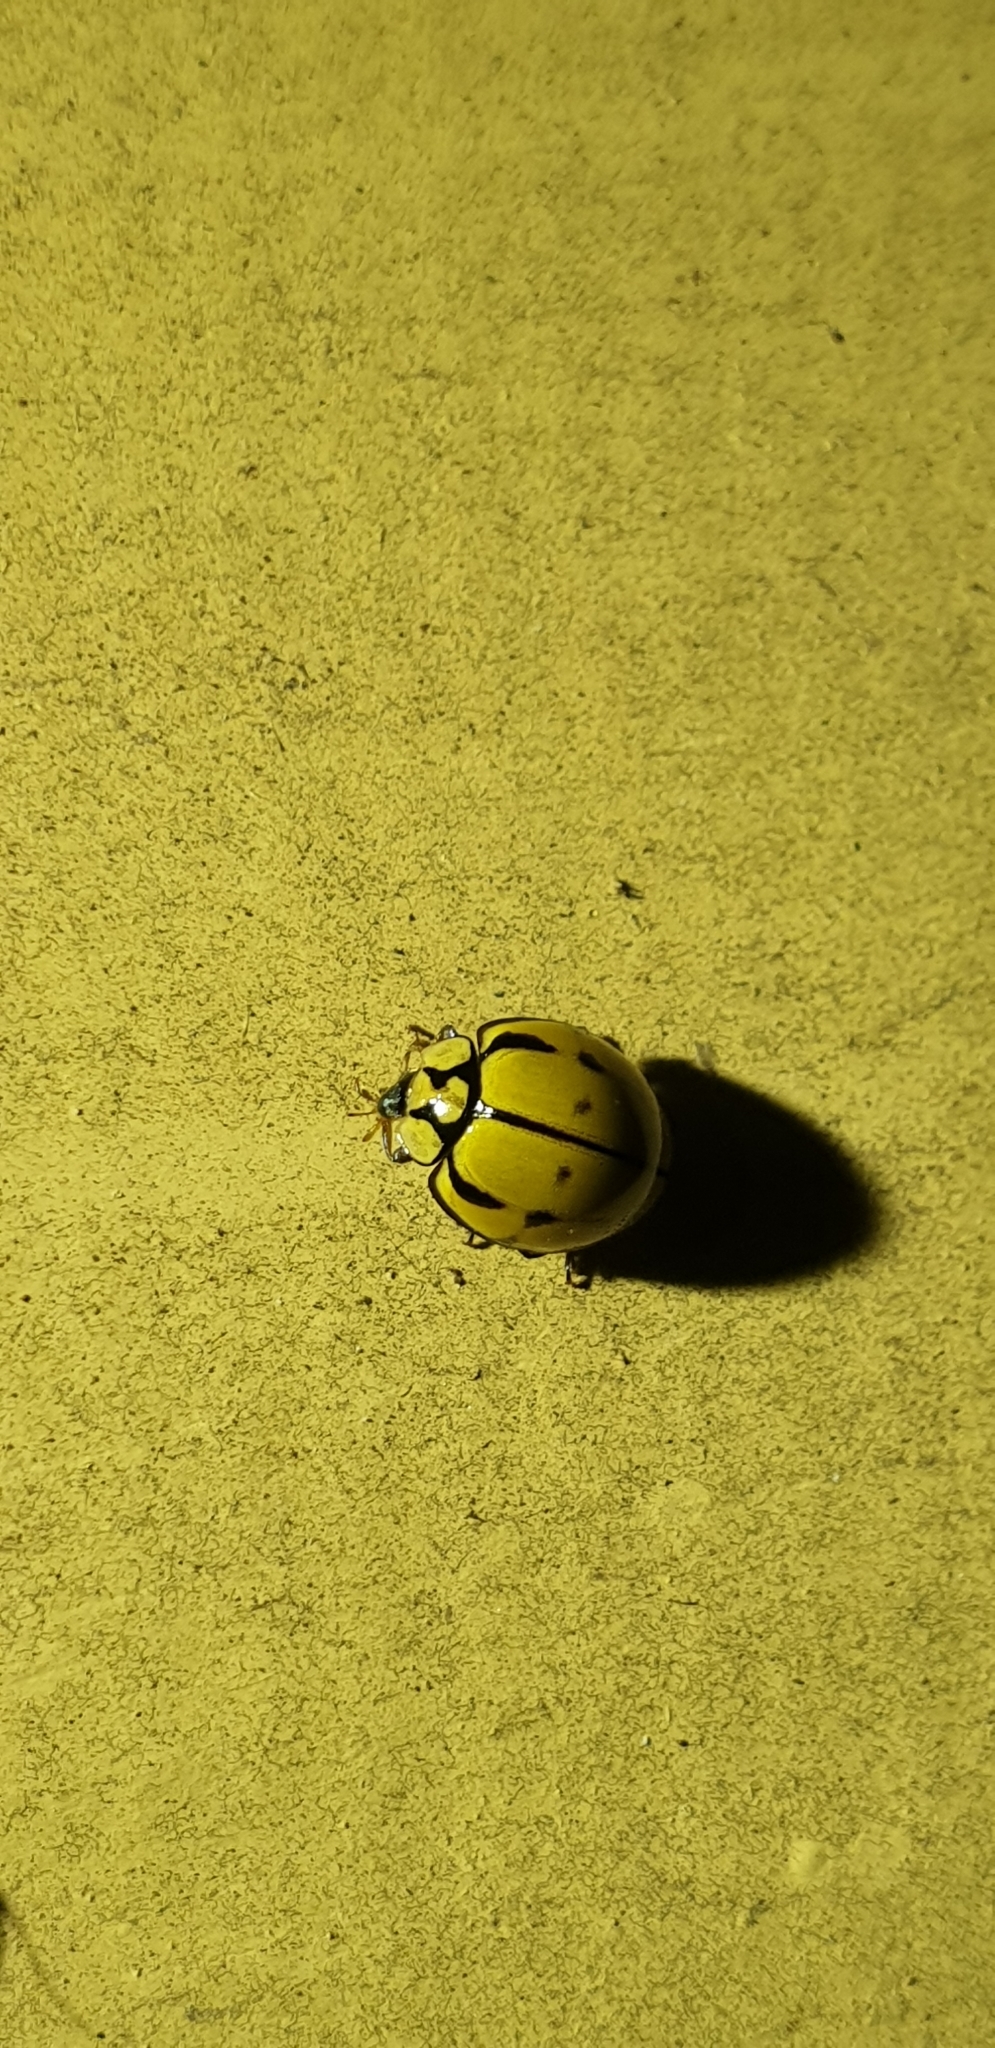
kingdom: Animalia
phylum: Arthropoda
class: Insecta
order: Coleoptera
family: Coccinellidae
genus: Harmonia
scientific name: Harmonia
